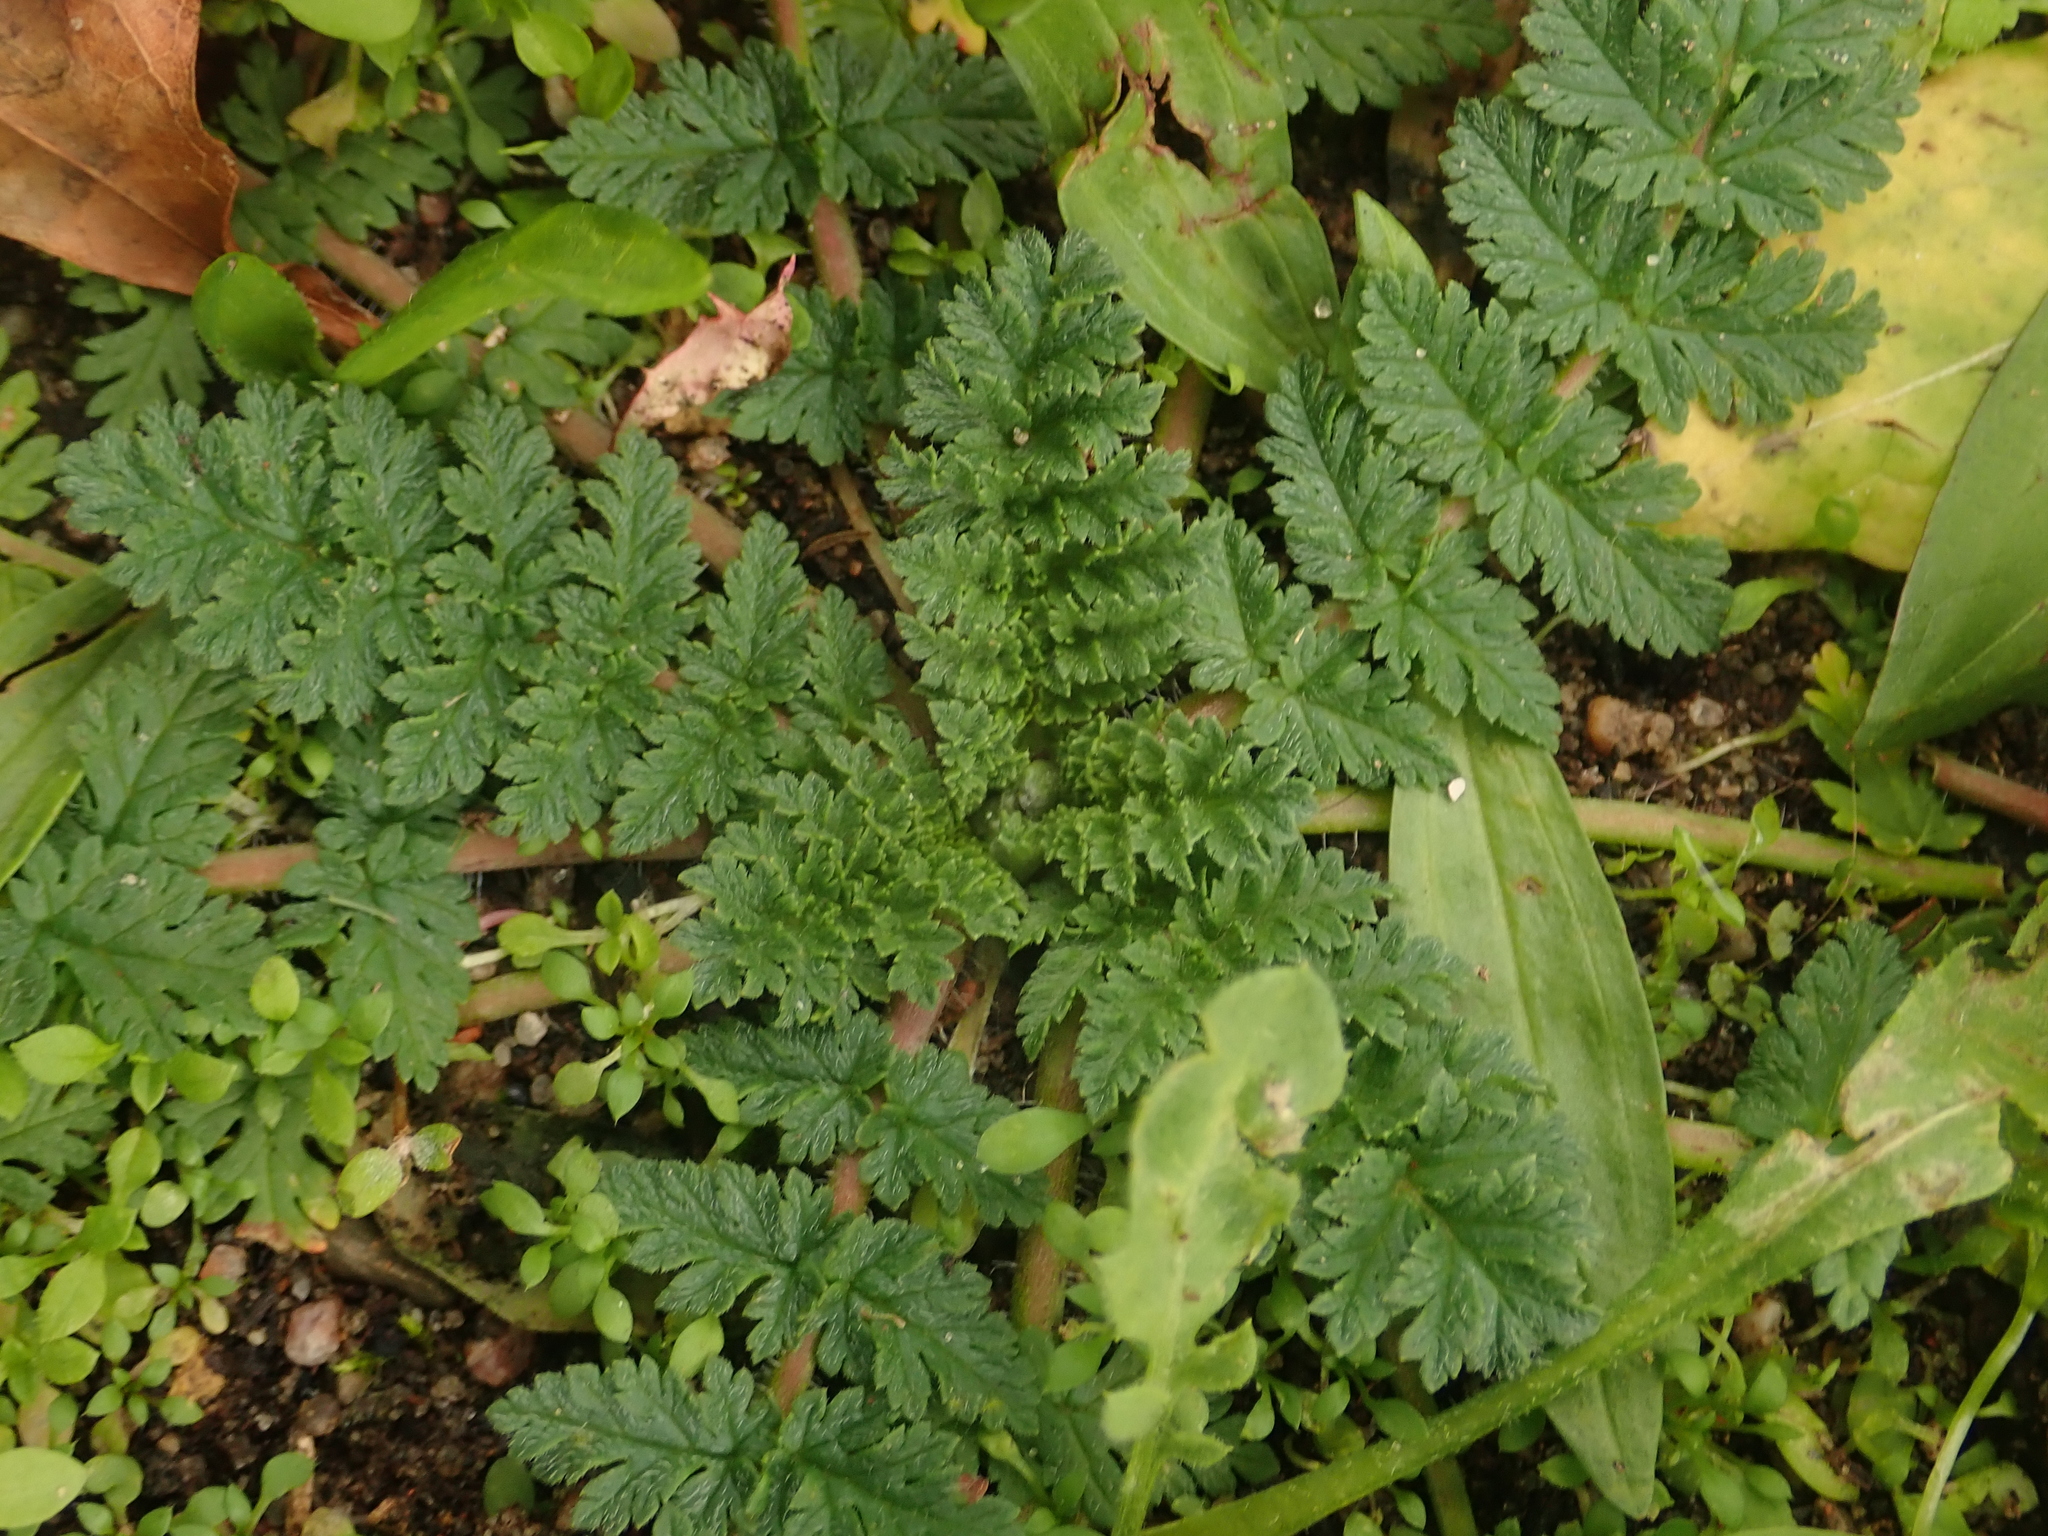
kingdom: Plantae
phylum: Tracheophyta
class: Magnoliopsida
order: Geraniales
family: Geraniaceae
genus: Erodium
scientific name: Erodium cicutarium
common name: Common stork's-bill
